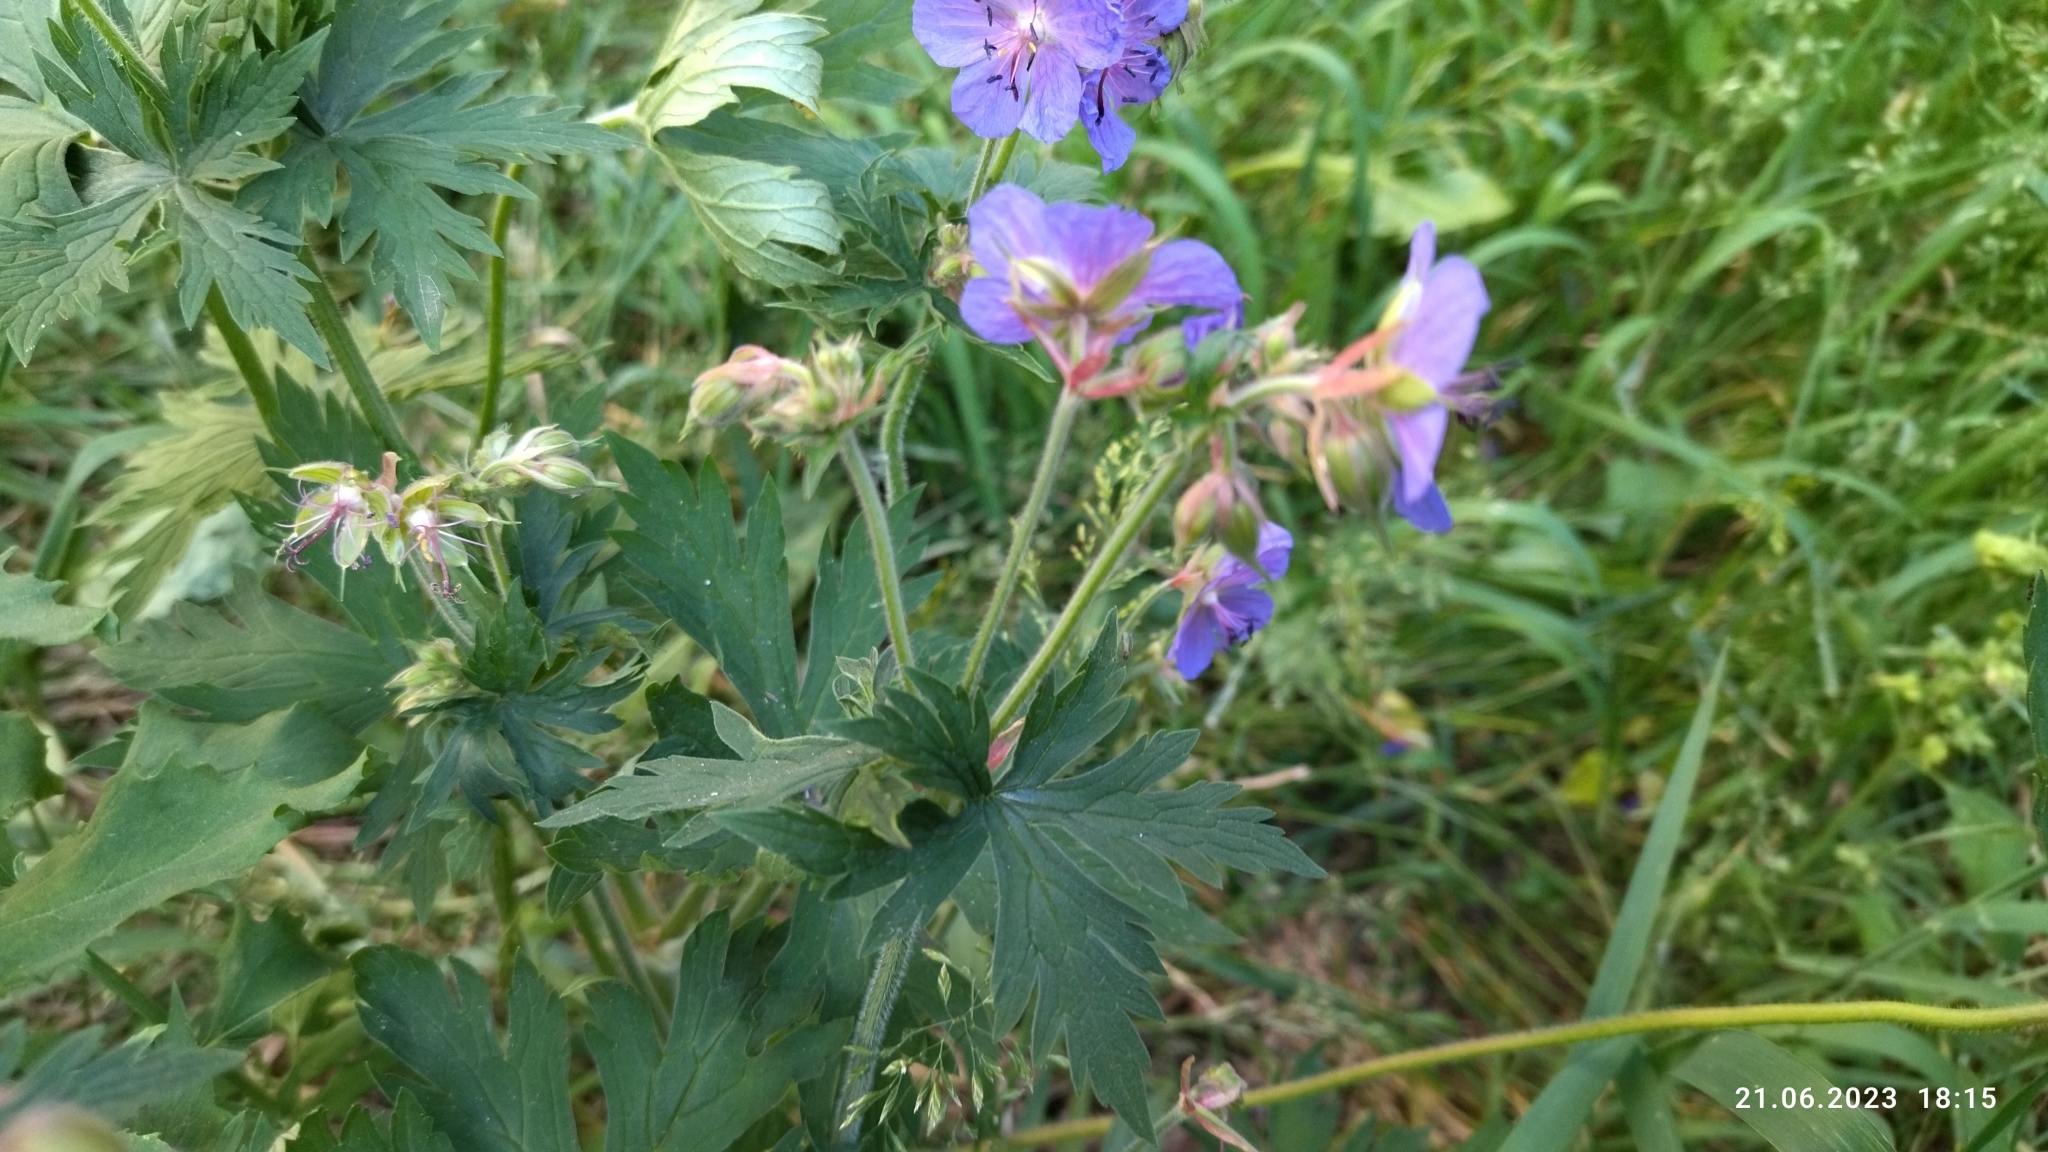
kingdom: Plantae
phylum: Tracheophyta
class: Magnoliopsida
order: Geraniales
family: Geraniaceae
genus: Geranium
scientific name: Geranium pratense
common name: Meadow crane's-bill
